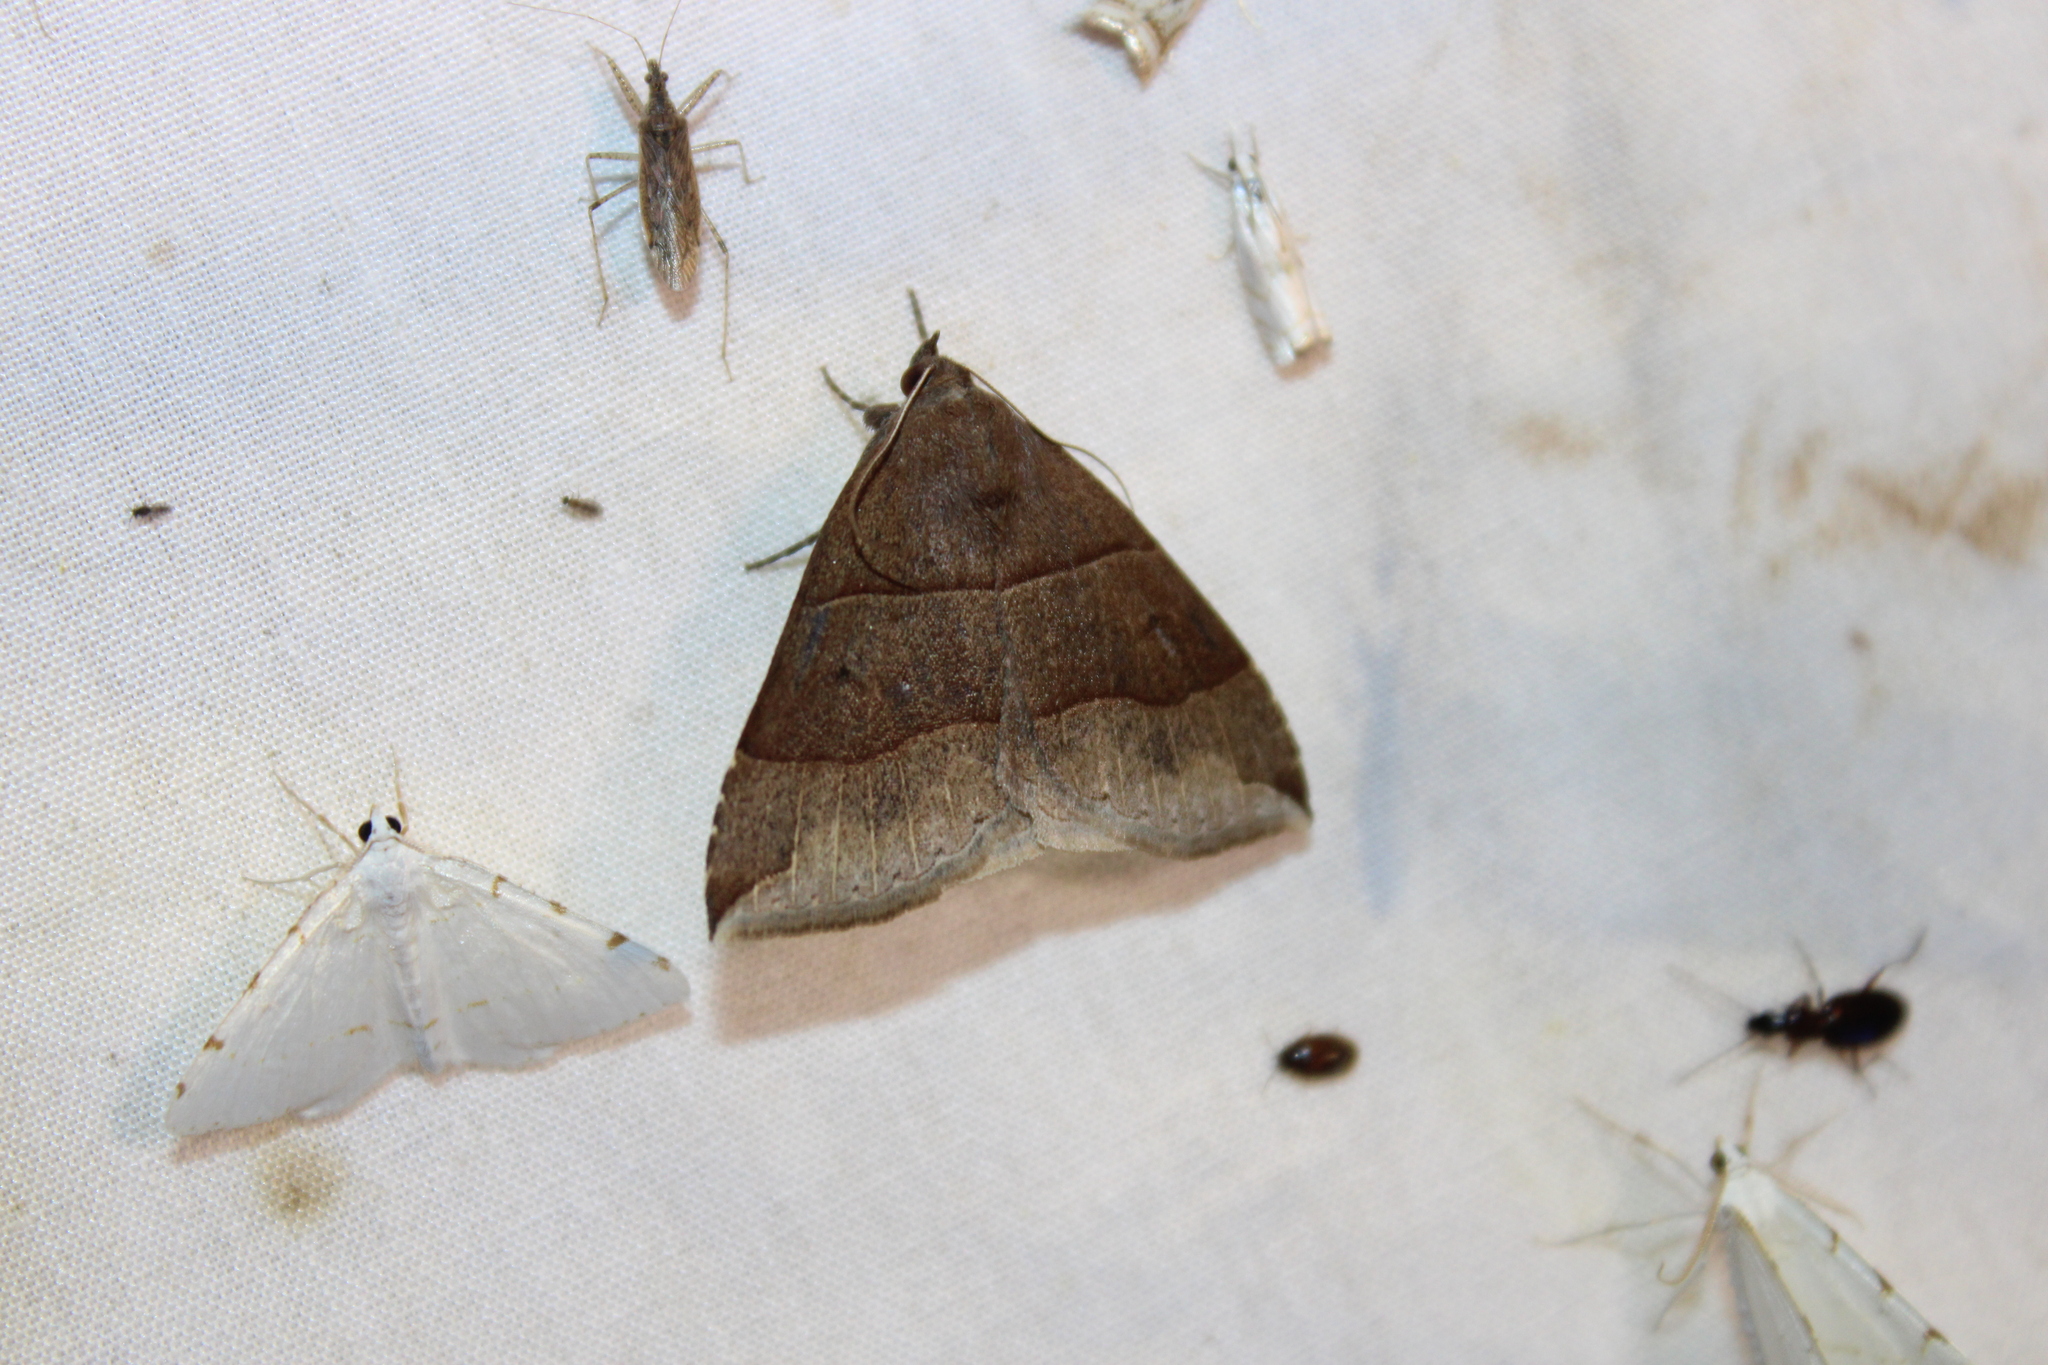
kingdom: Animalia
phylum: Arthropoda
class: Insecta
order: Lepidoptera
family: Erebidae
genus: Parallelia
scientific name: Parallelia bistriaris
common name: Maple looper moth
